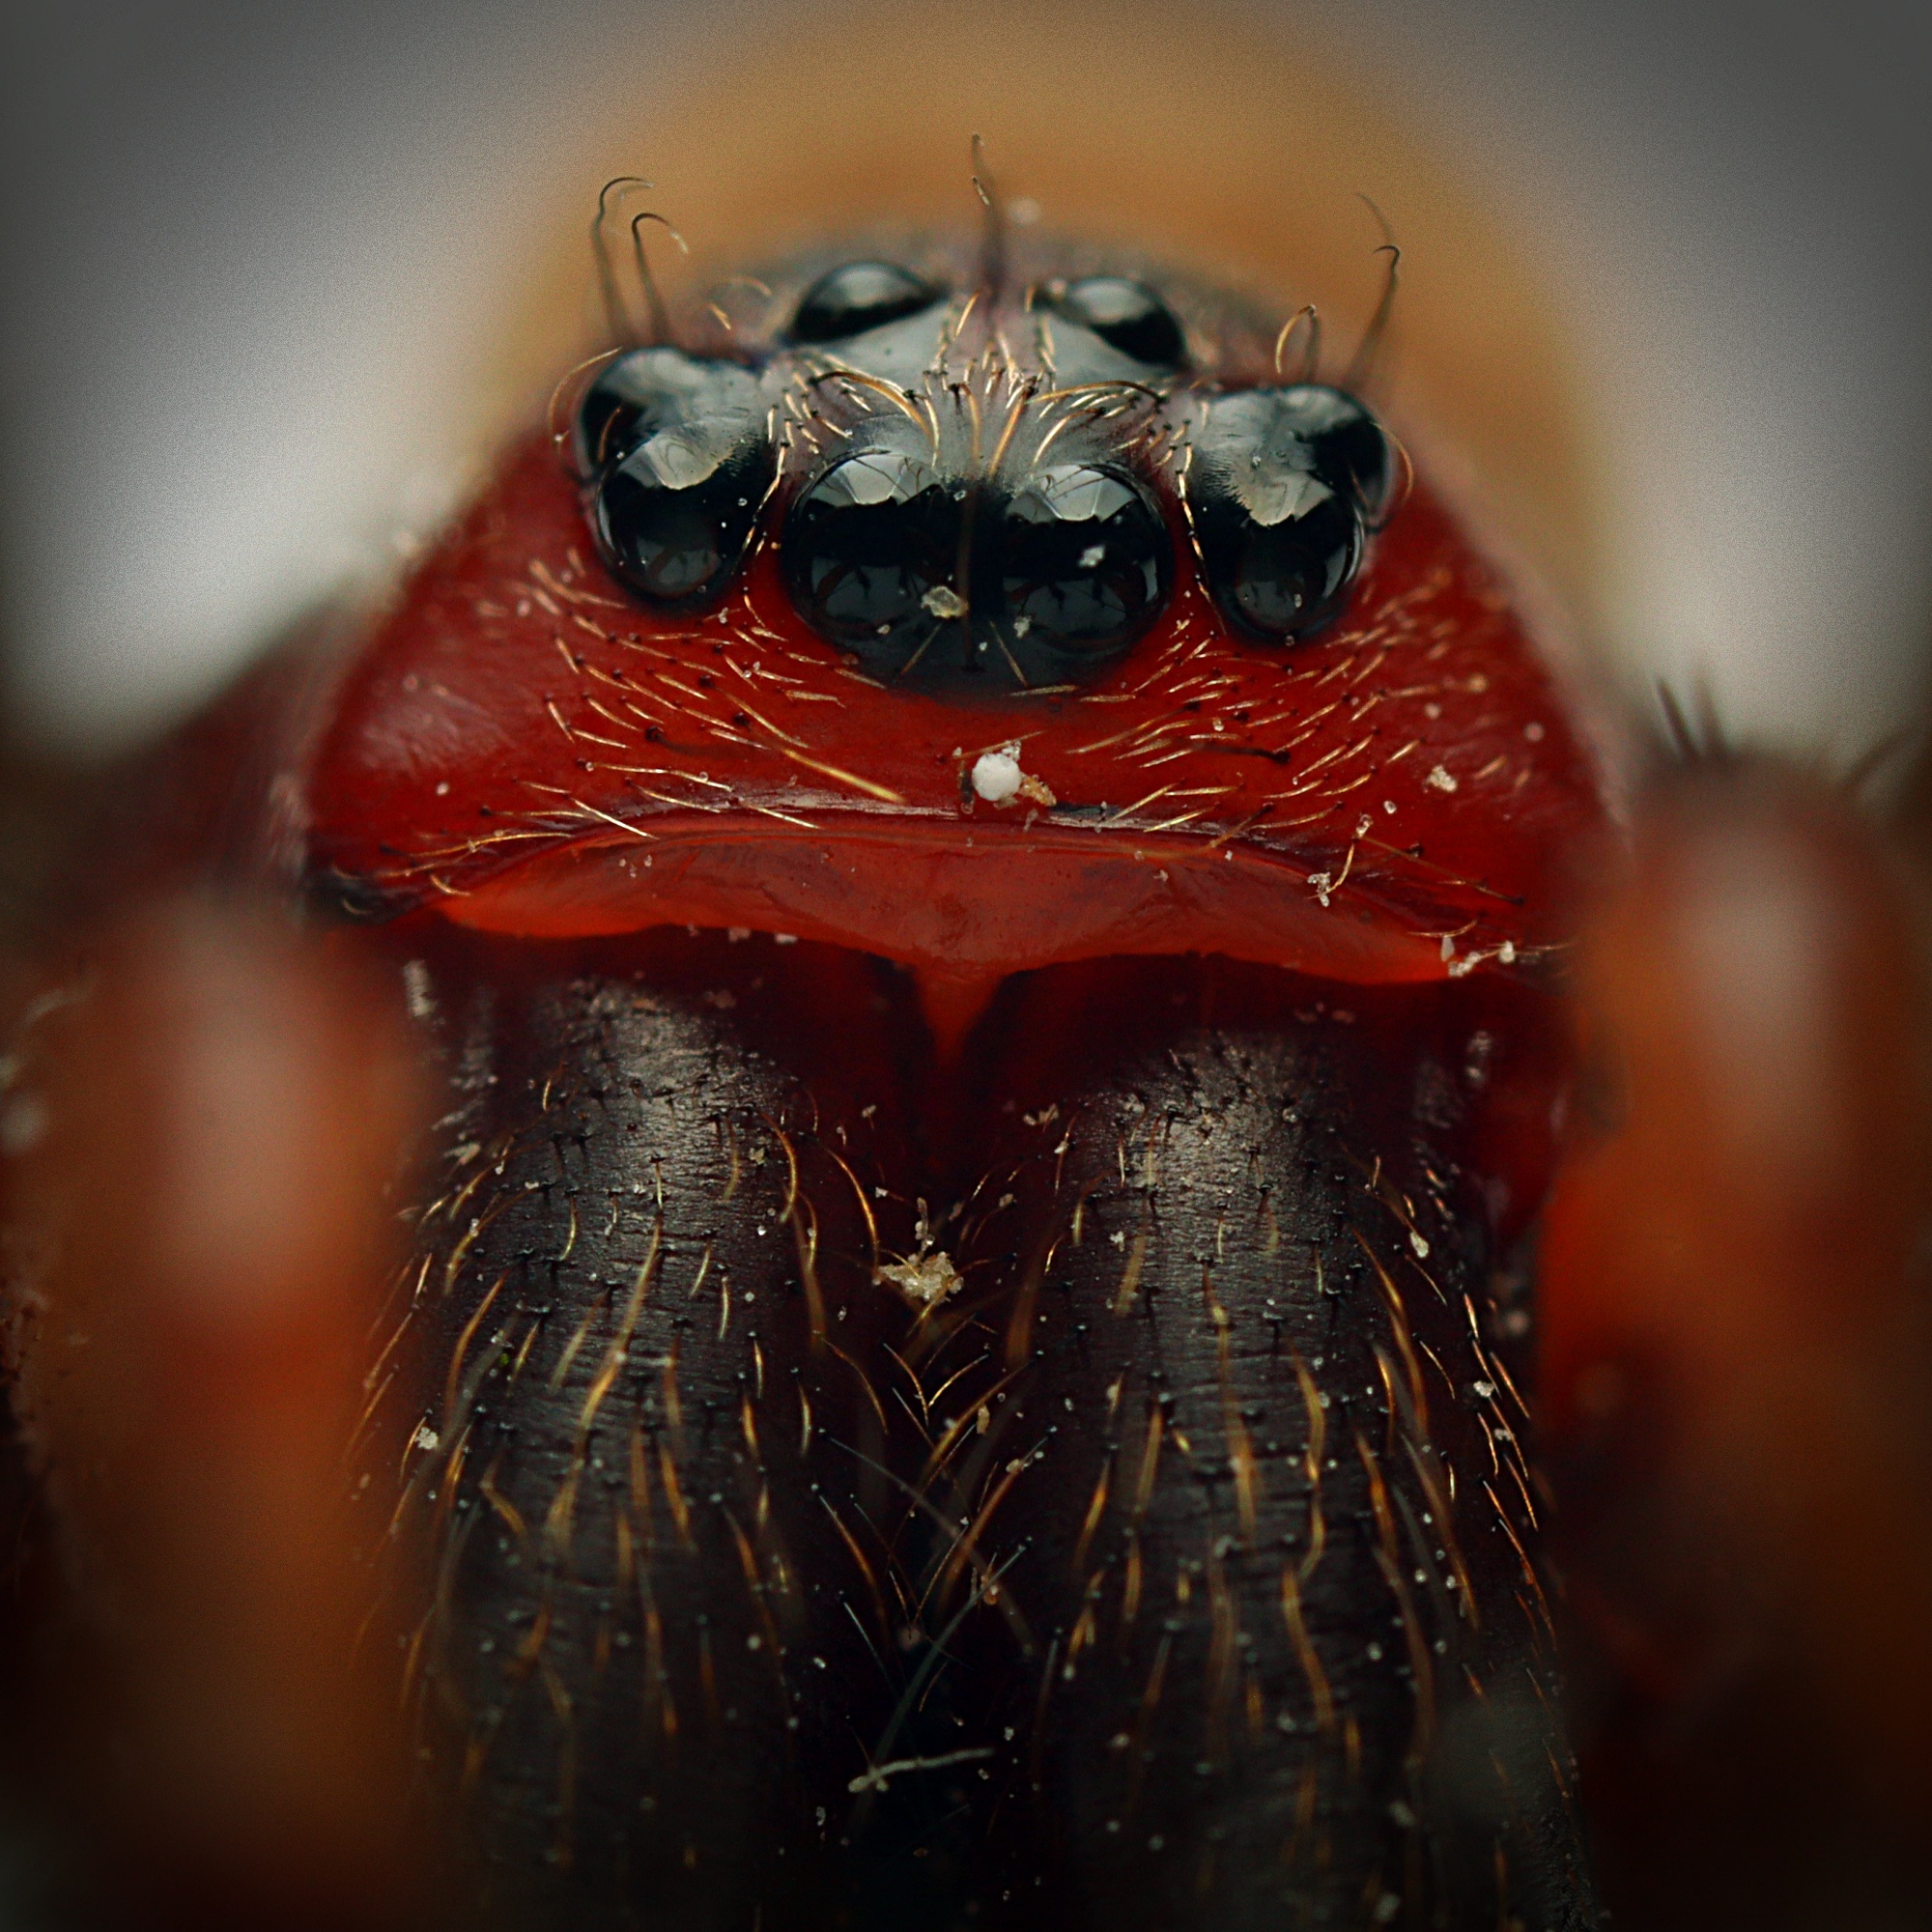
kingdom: Animalia
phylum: Arthropoda
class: Arachnida
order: Araneae
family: Desidae
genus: Cambridgea
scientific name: Cambridgea foliata
